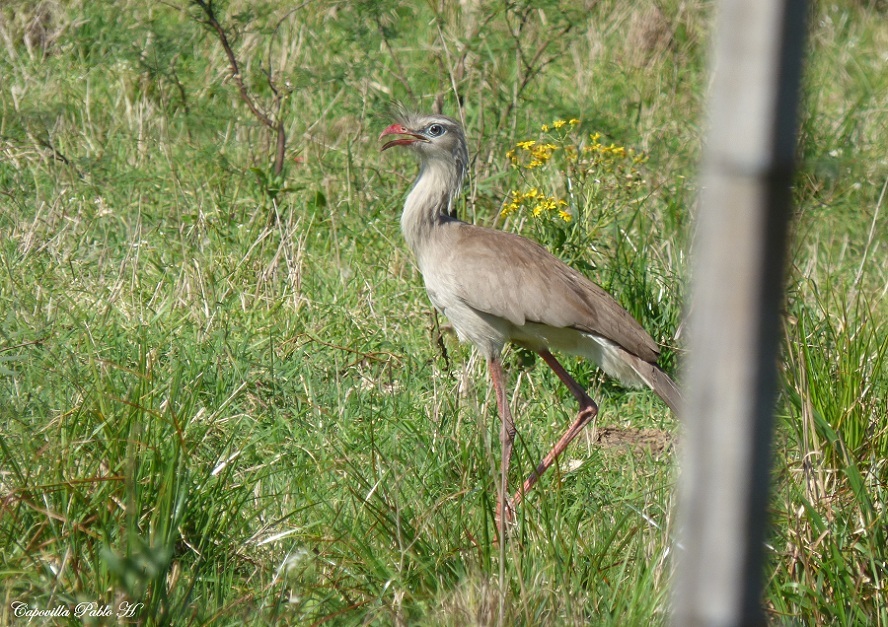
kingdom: Animalia
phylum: Chordata
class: Aves
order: Cariamiformes
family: Cariamidae
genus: Cariama
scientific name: Cariama cristata
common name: Red-legged seriema
